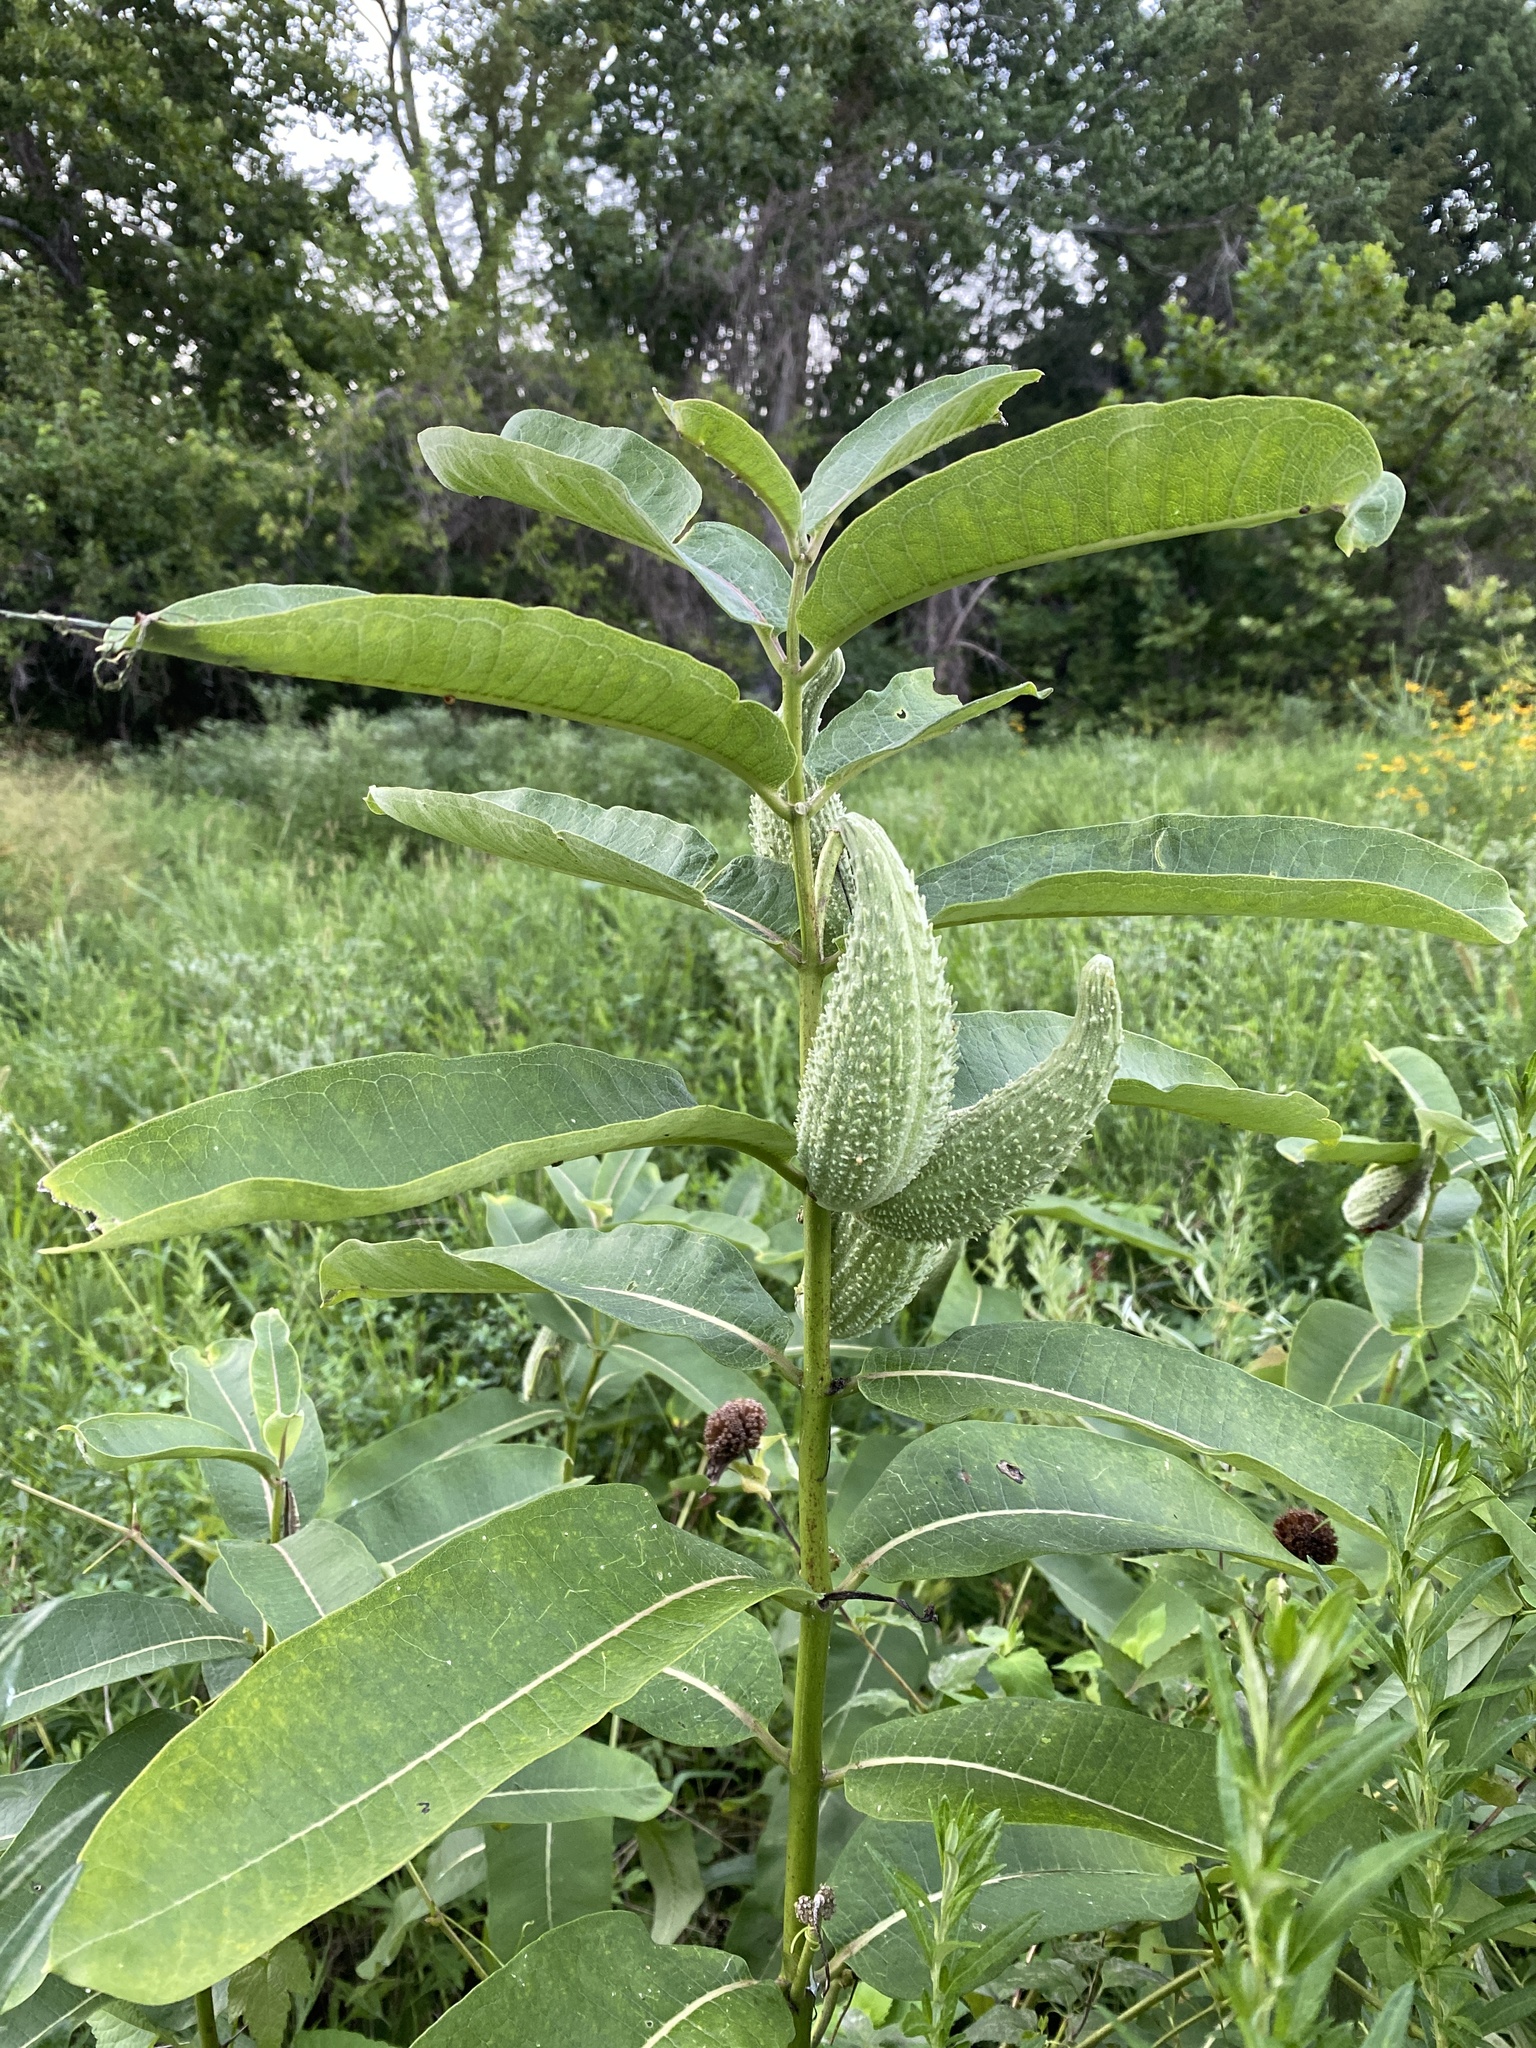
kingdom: Plantae
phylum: Tracheophyta
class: Magnoliopsida
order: Gentianales
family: Apocynaceae
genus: Asclepias
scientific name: Asclepias syriaca
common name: Common milkweed
